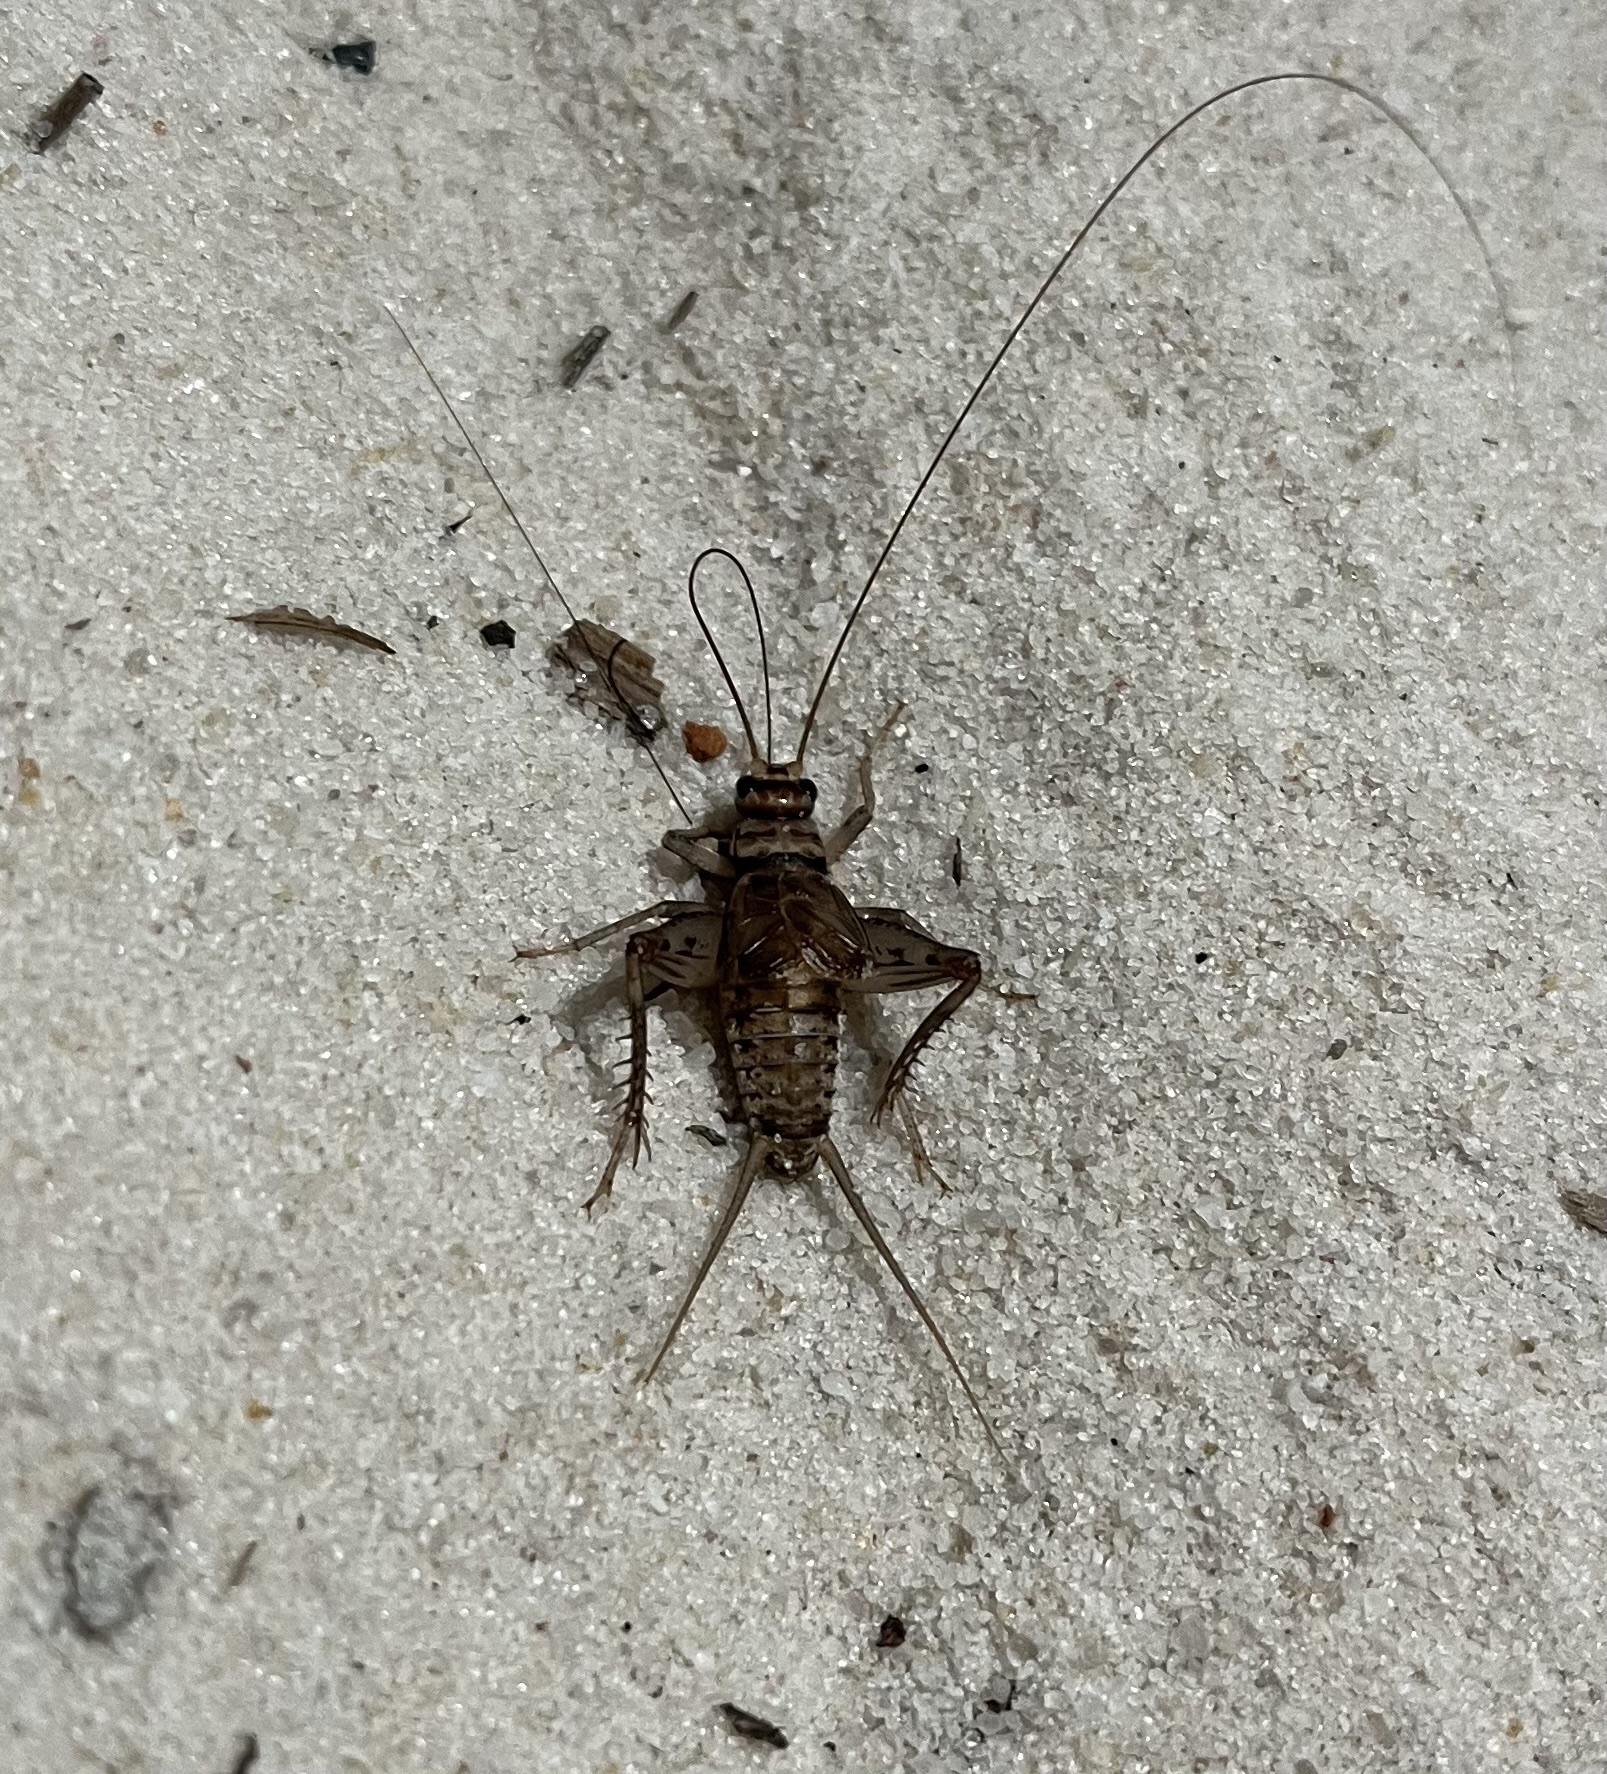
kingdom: Animalia
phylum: Arthropoda
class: Insecta
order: Orthoptera
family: Gryllidae
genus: Gryllodes
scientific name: Gryllodes sigillatus
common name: Tropical house cricket
